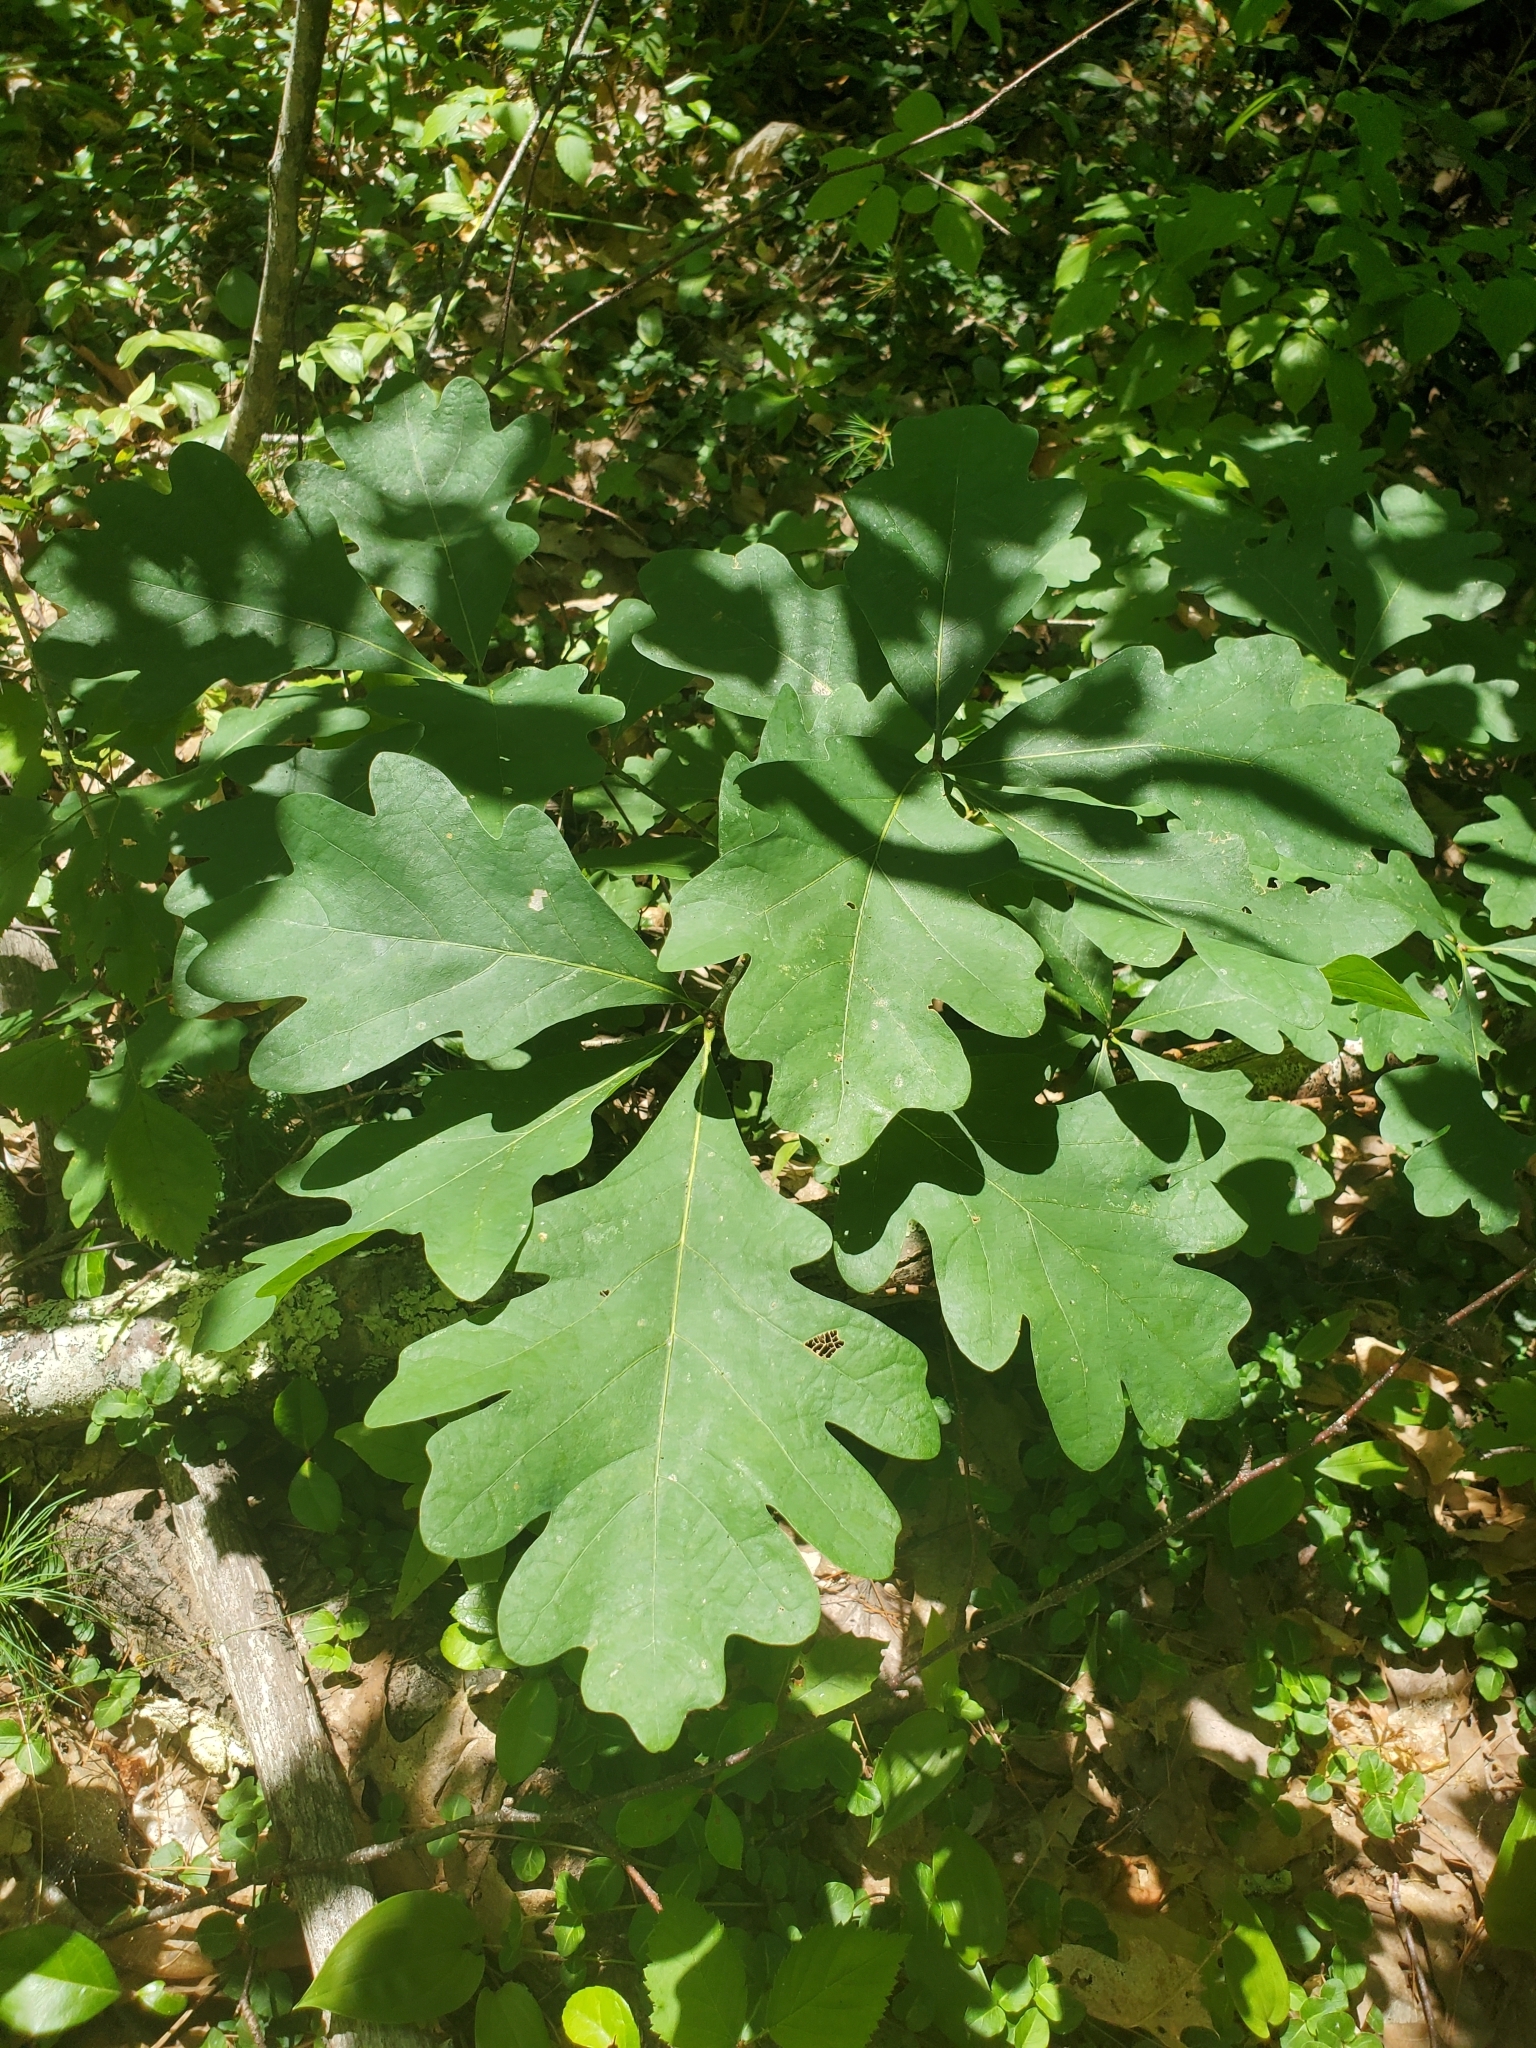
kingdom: Plantae
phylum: Tracheophyta
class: Magnoliopsida
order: Fagales
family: Fagaceae
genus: Quercus
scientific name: Quercus alba
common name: White oak
